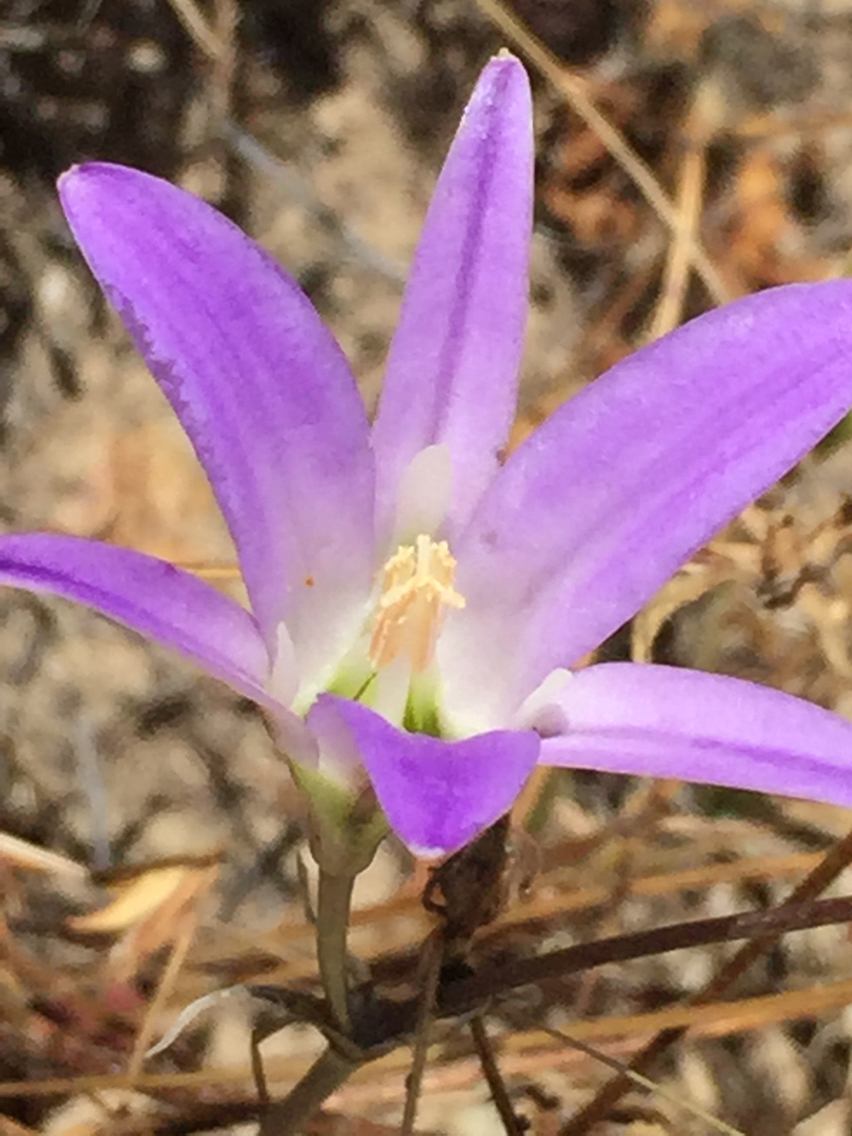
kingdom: Plantae
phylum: Tracheophyta
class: Liliopsida
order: Asparagales
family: Asparagaceae
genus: Brodiaea
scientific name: Brodiaea elegans
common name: Elegant cluster-lily
